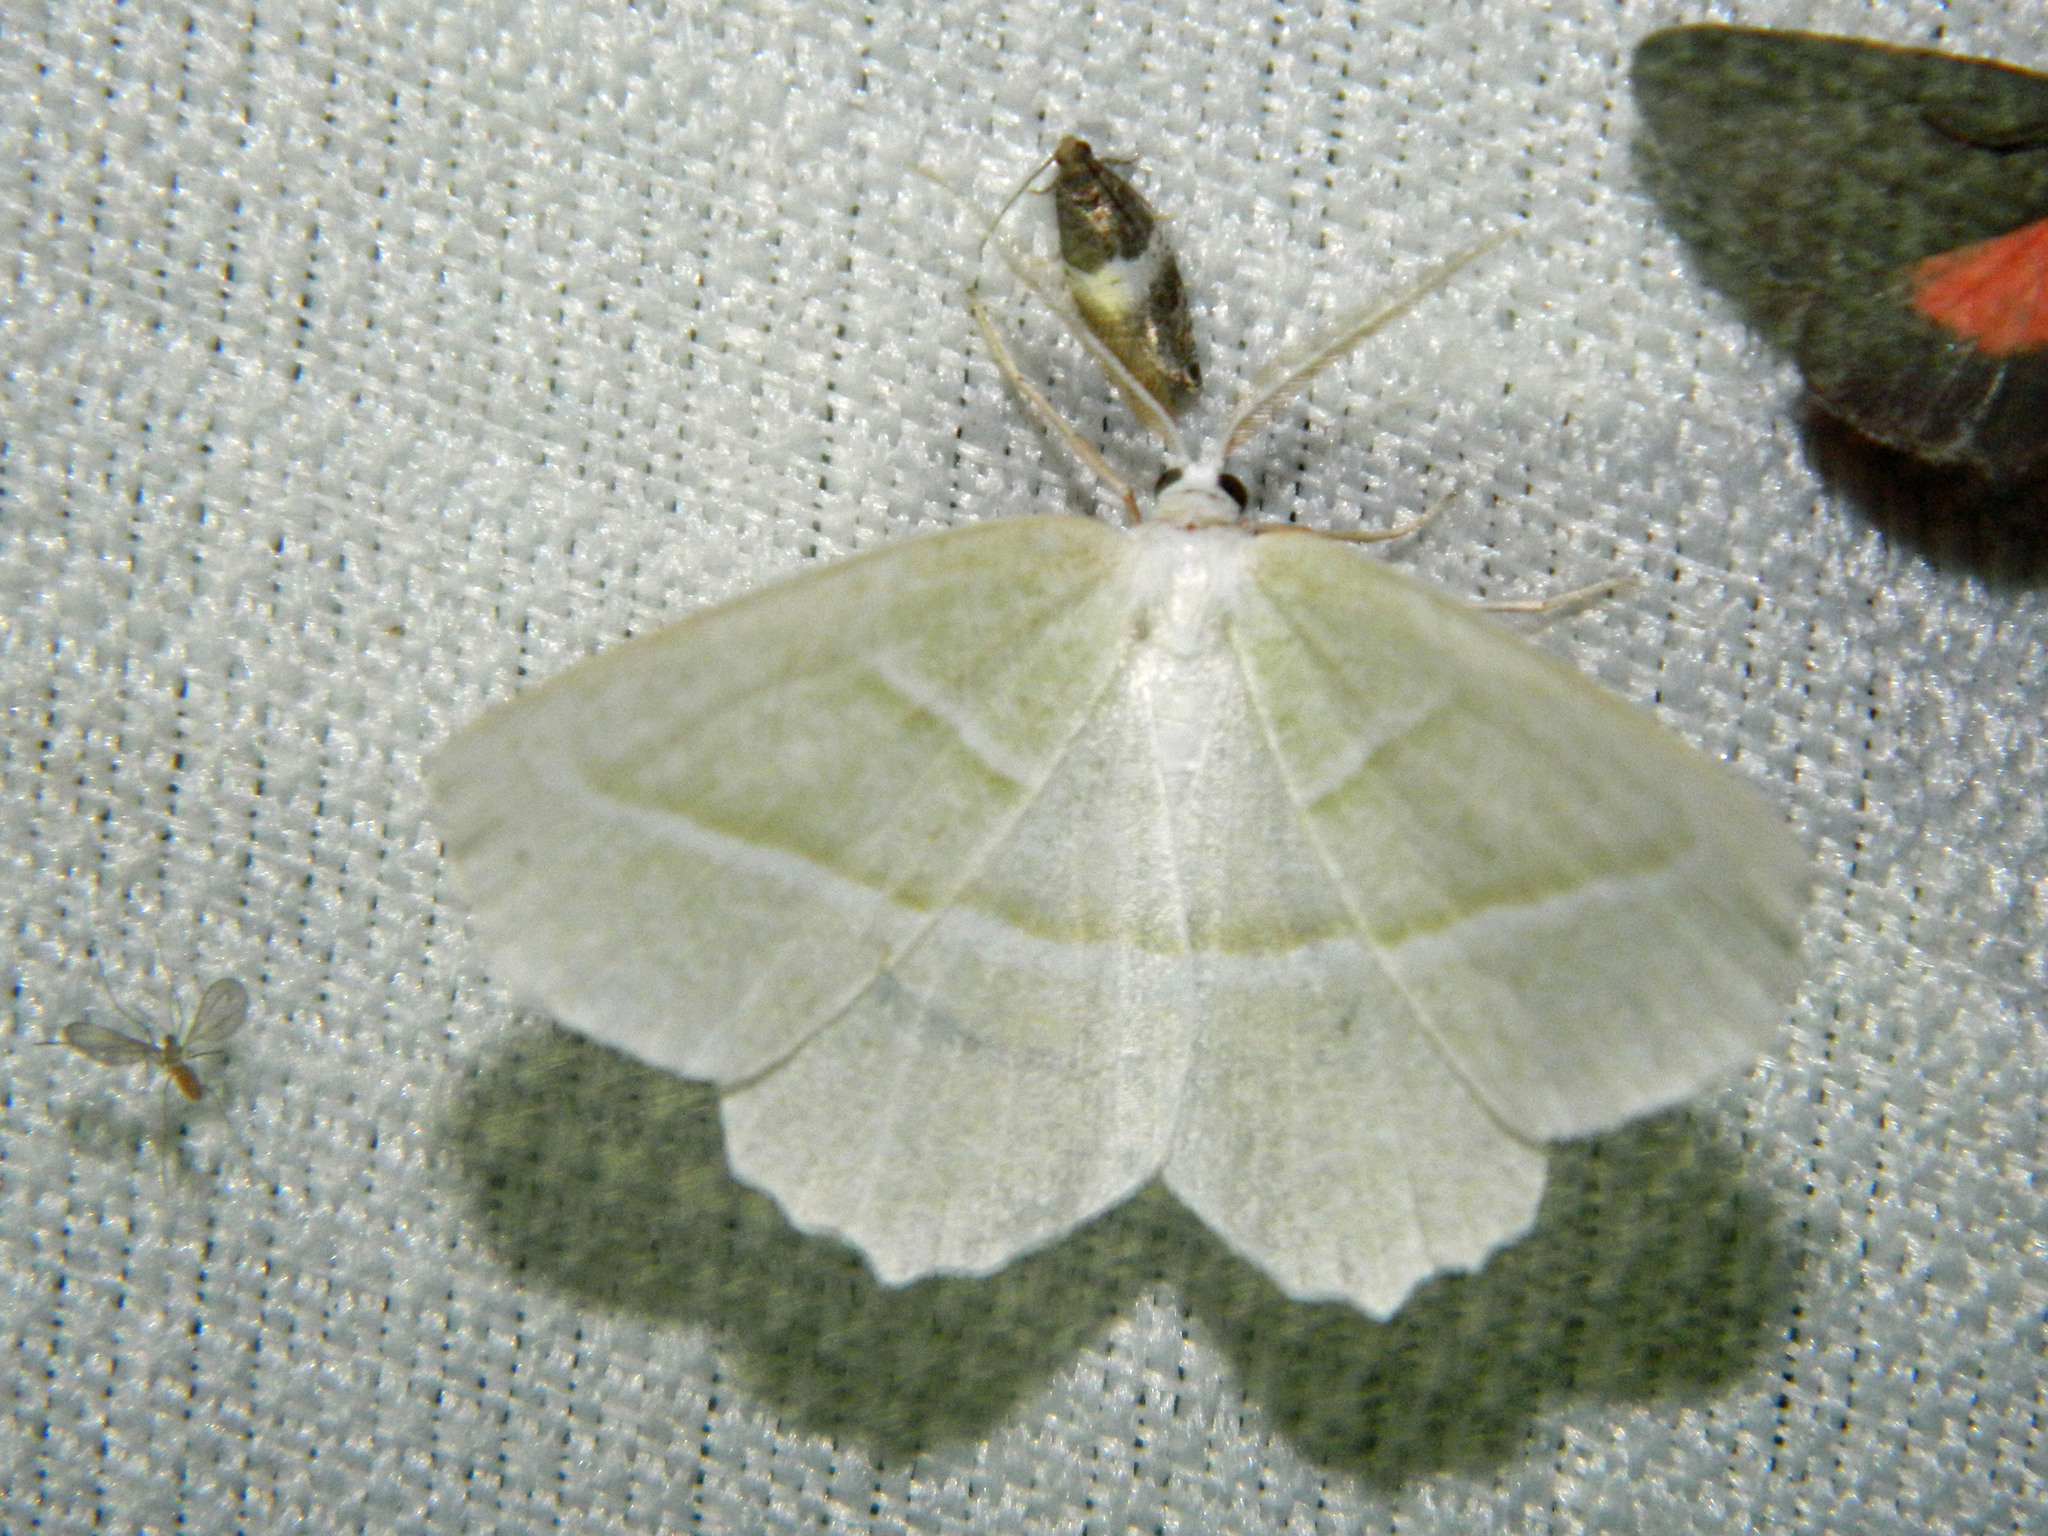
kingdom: Animalia
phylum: Arthropoda
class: Insecta
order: Lepidoptera
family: Geometridae
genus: Campaea
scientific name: Campaea perlata
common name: Fringed looper
